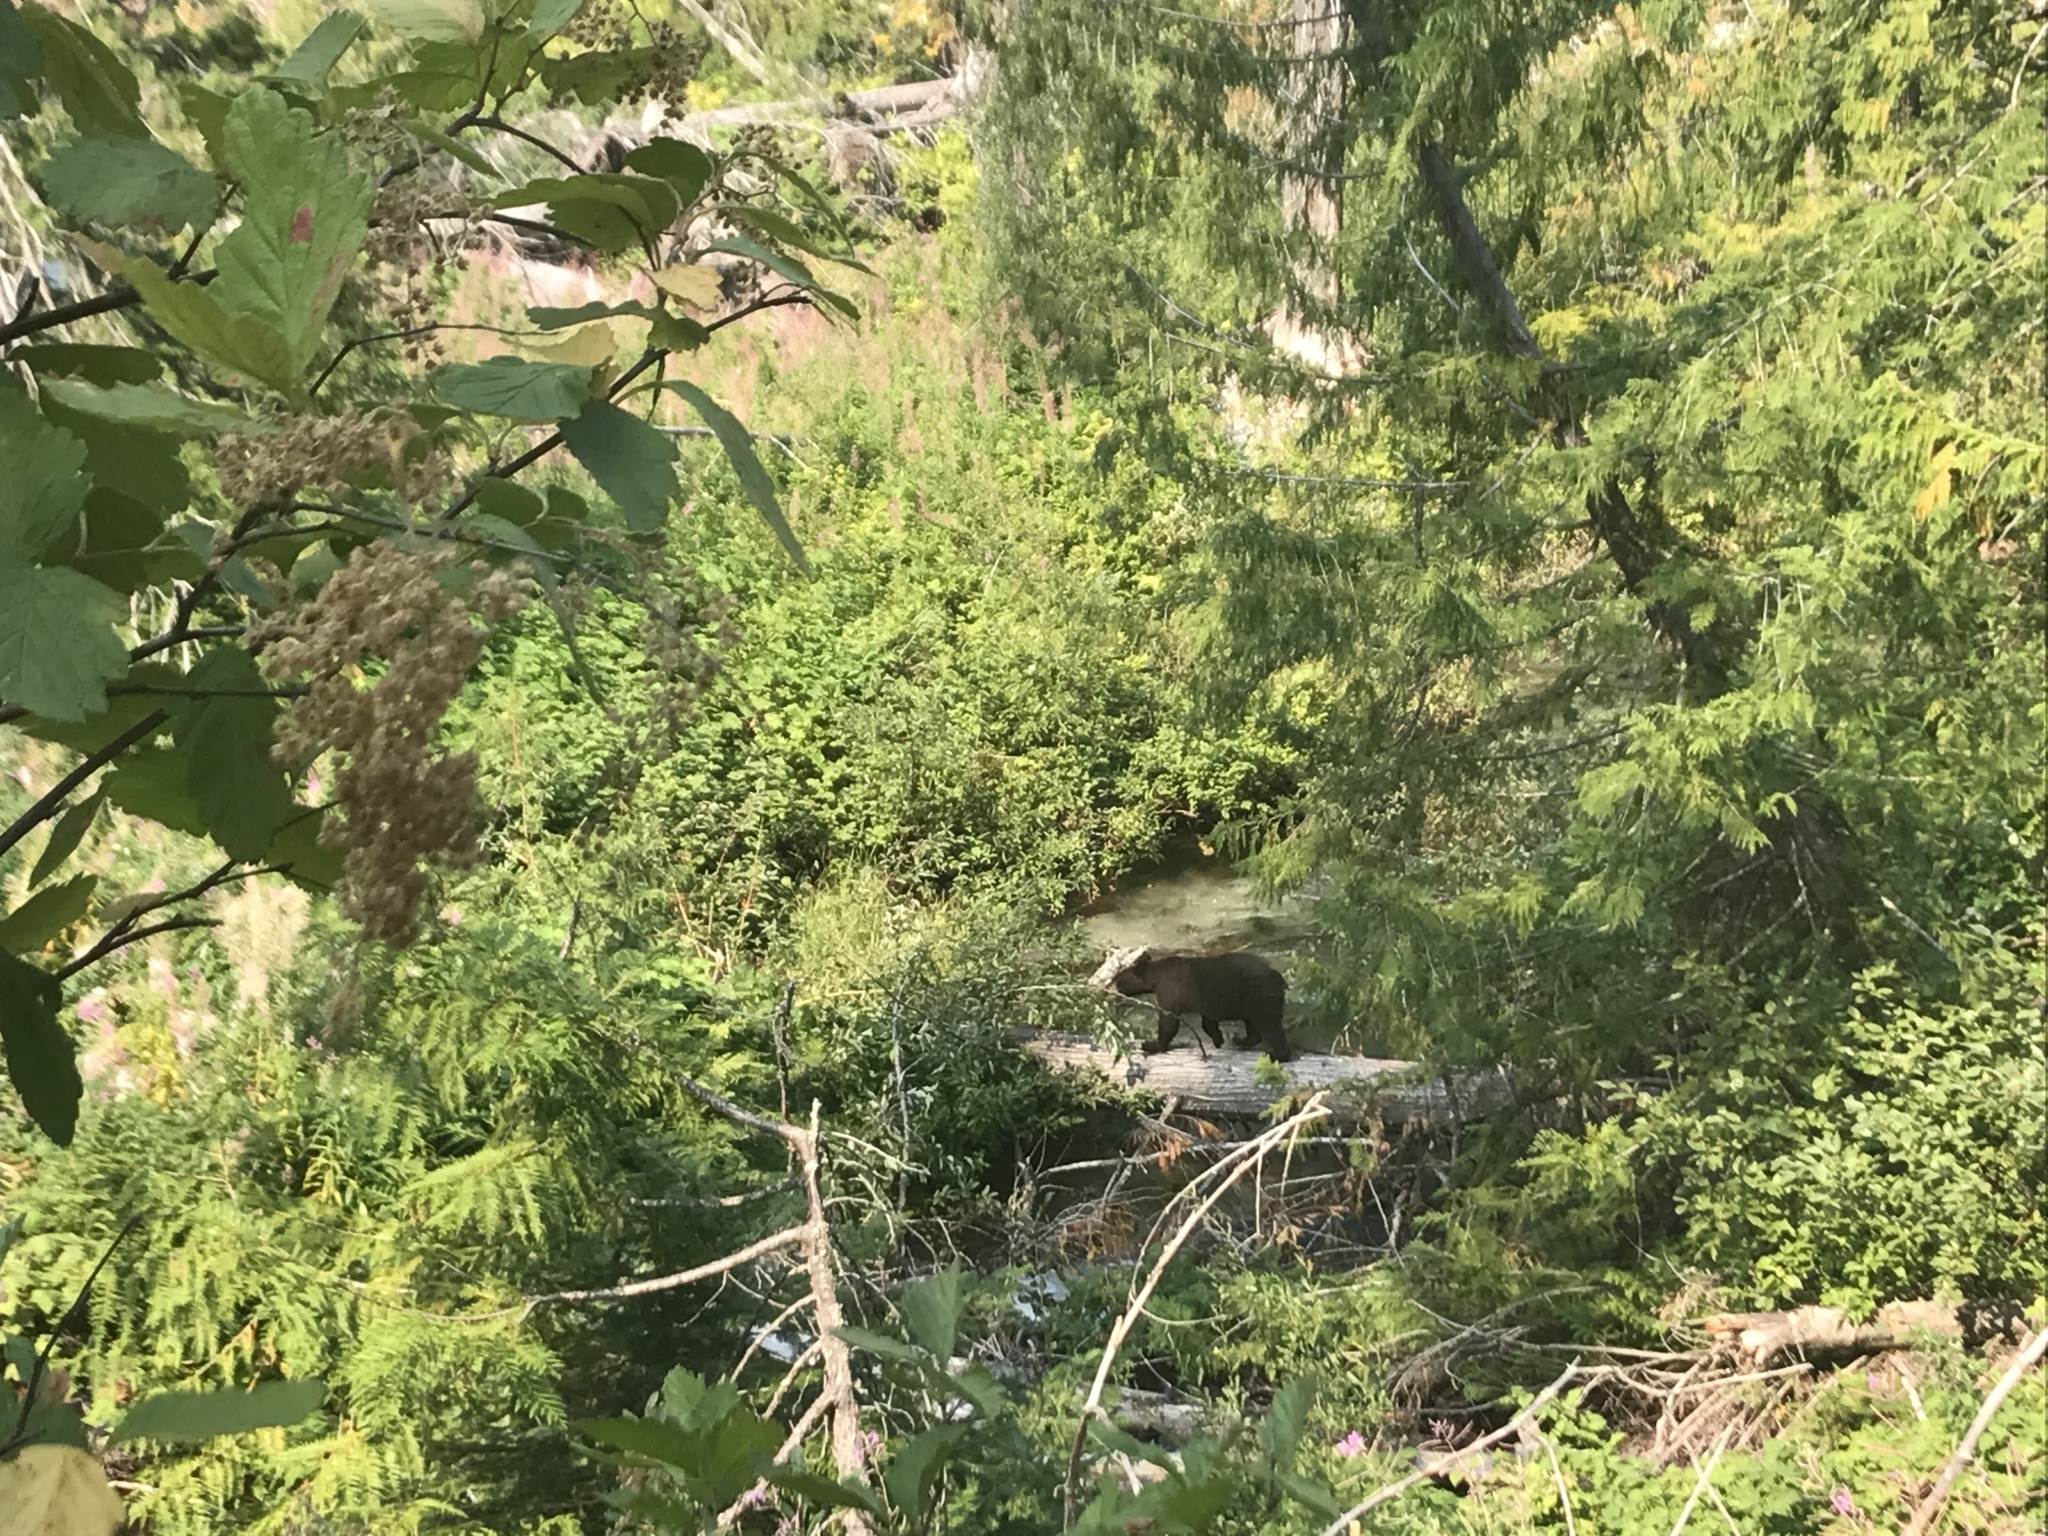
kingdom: Animalia
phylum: Chordata
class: Mammalia
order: Carnivora
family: Ursidae
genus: Ursus
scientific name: Ursus americanus
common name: American black bear
